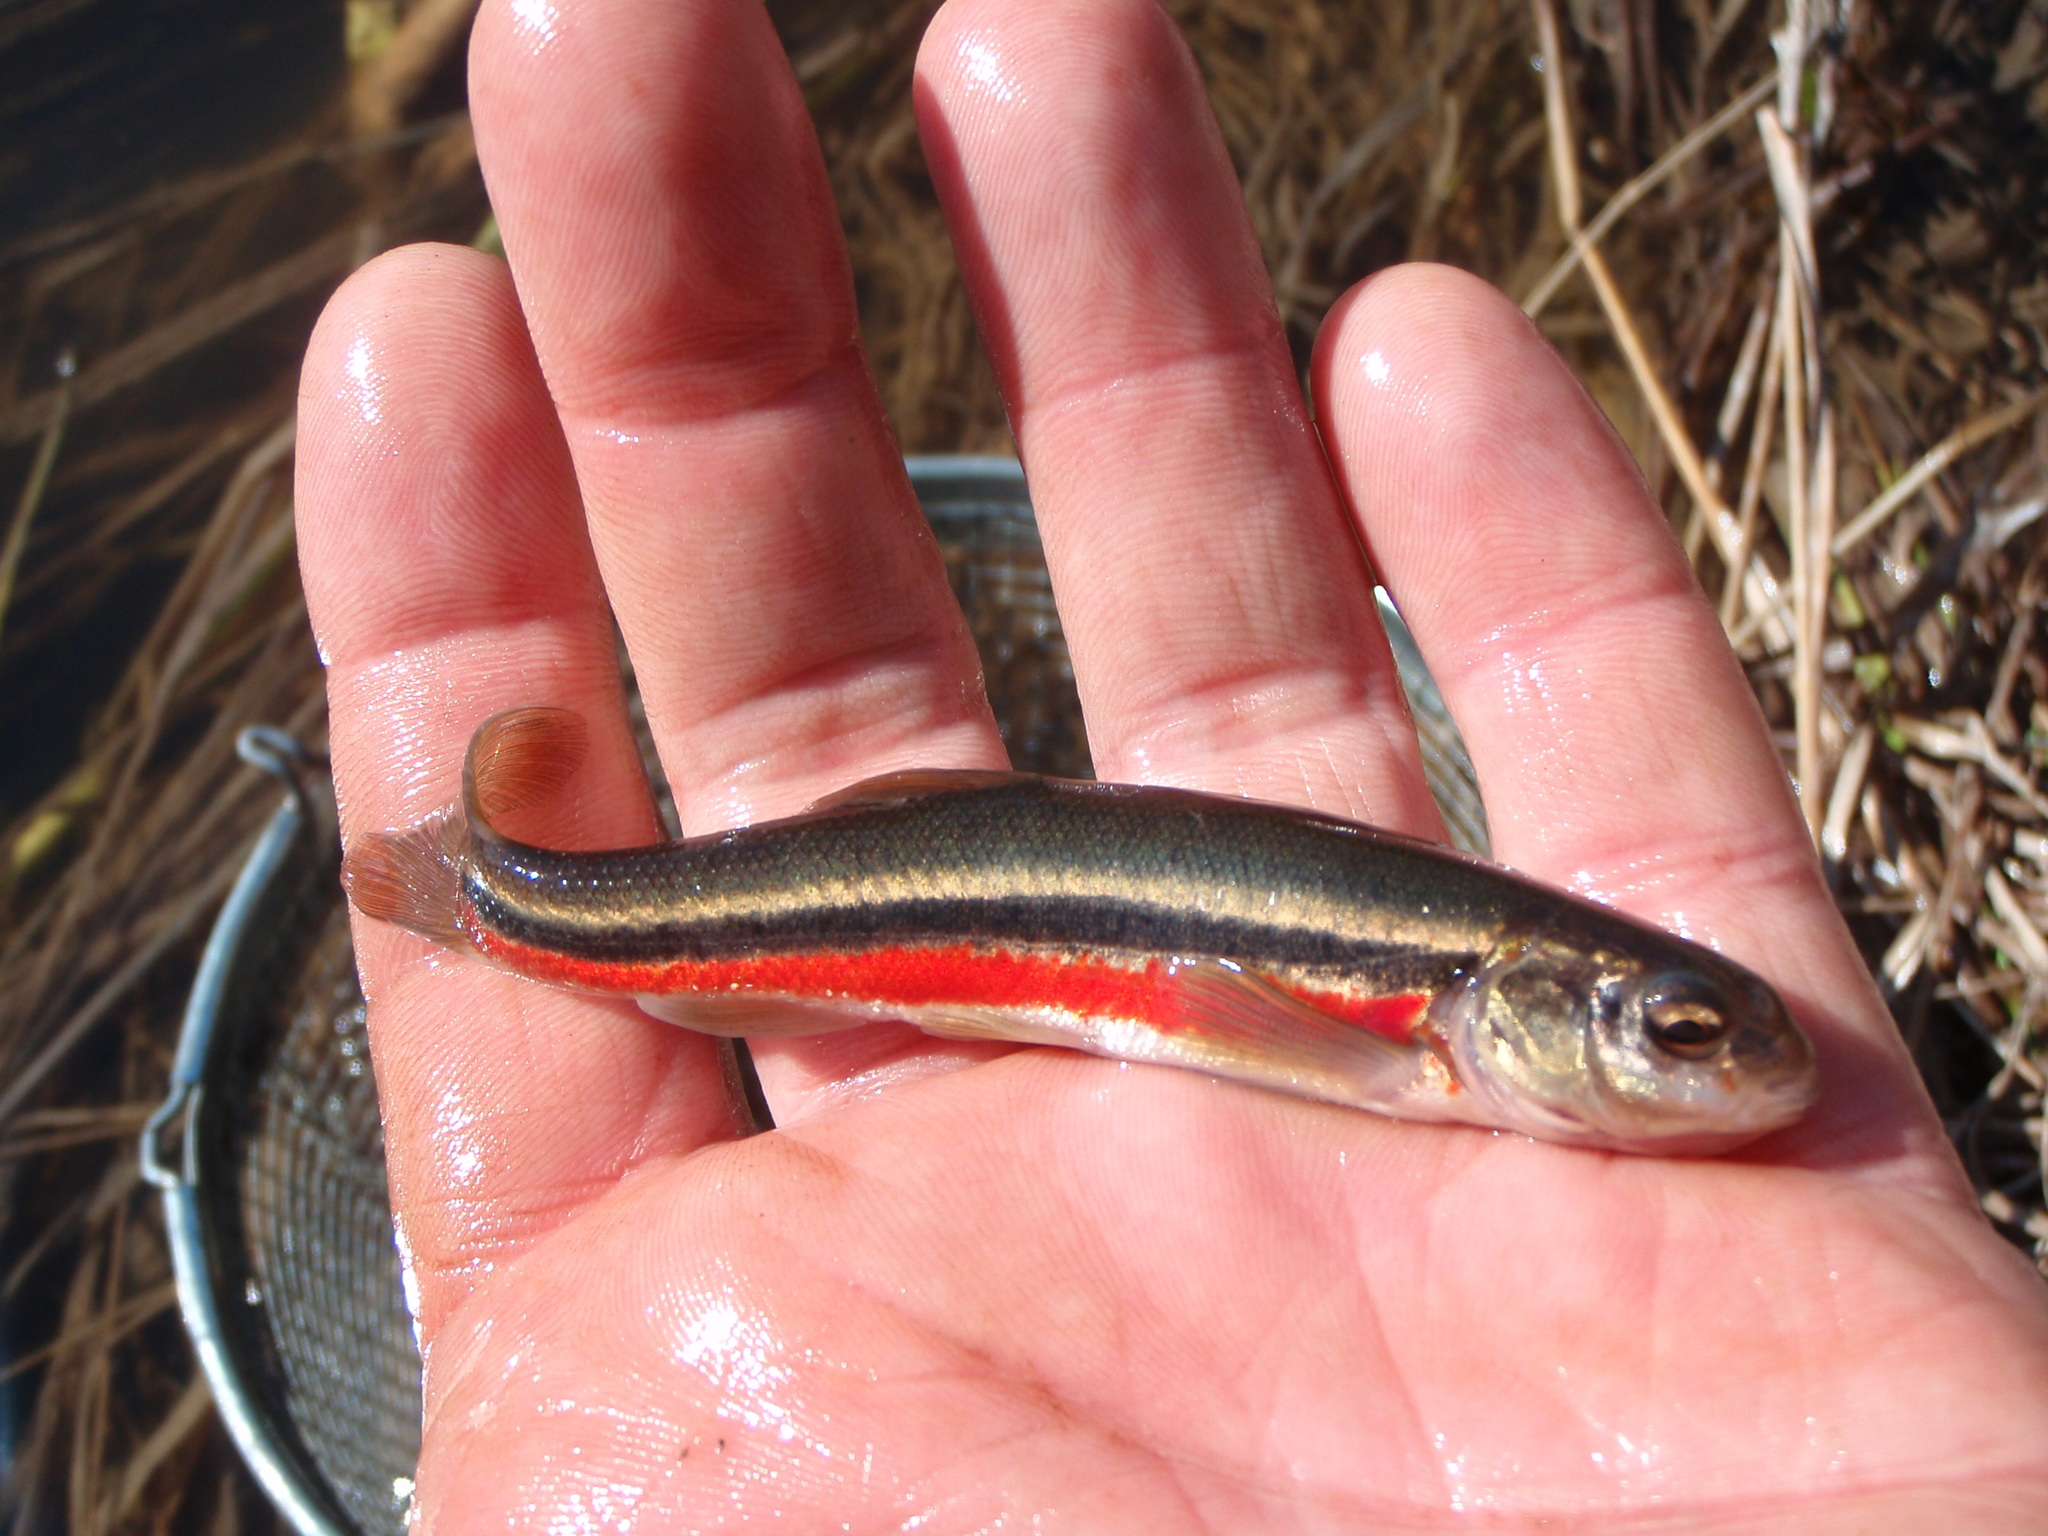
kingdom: Animalia
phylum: Chordata
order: Cypriniformes
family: Cyprinidae
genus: Margariscus
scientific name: Margariscus nachtriebi
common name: Northern pearl dace
